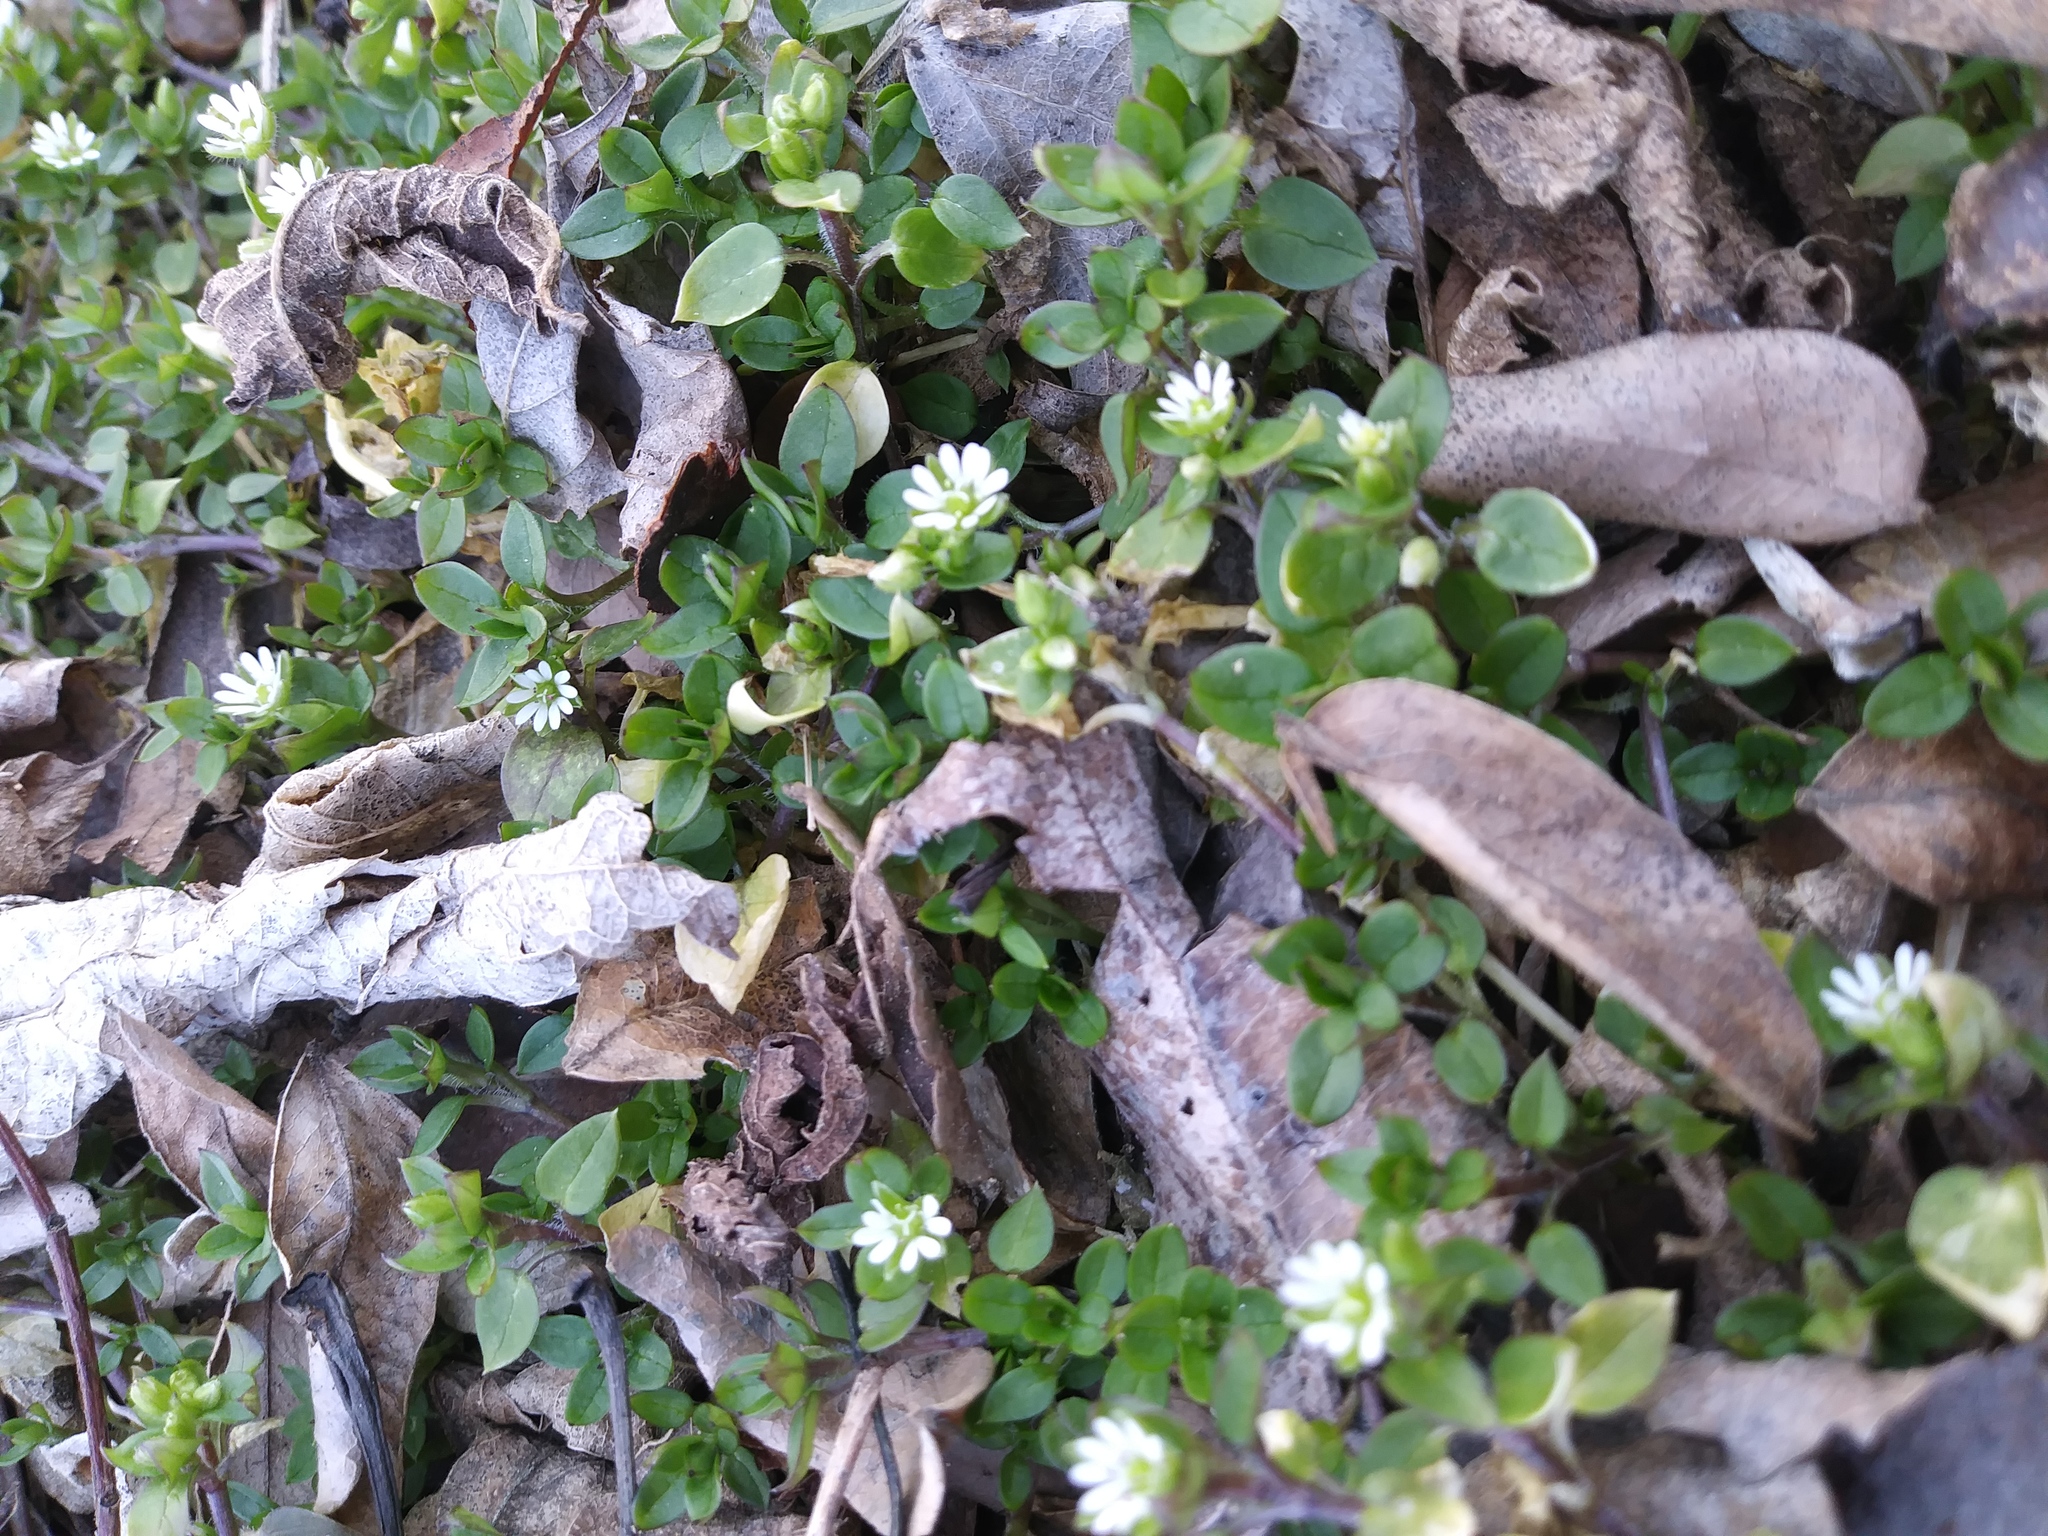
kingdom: Plantae
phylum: Tracheophyta
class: Magnoliopsida
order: Caryophyllales
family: Caryophyllaceae
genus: Stellaria
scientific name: Stellaria media
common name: Common chickweed
